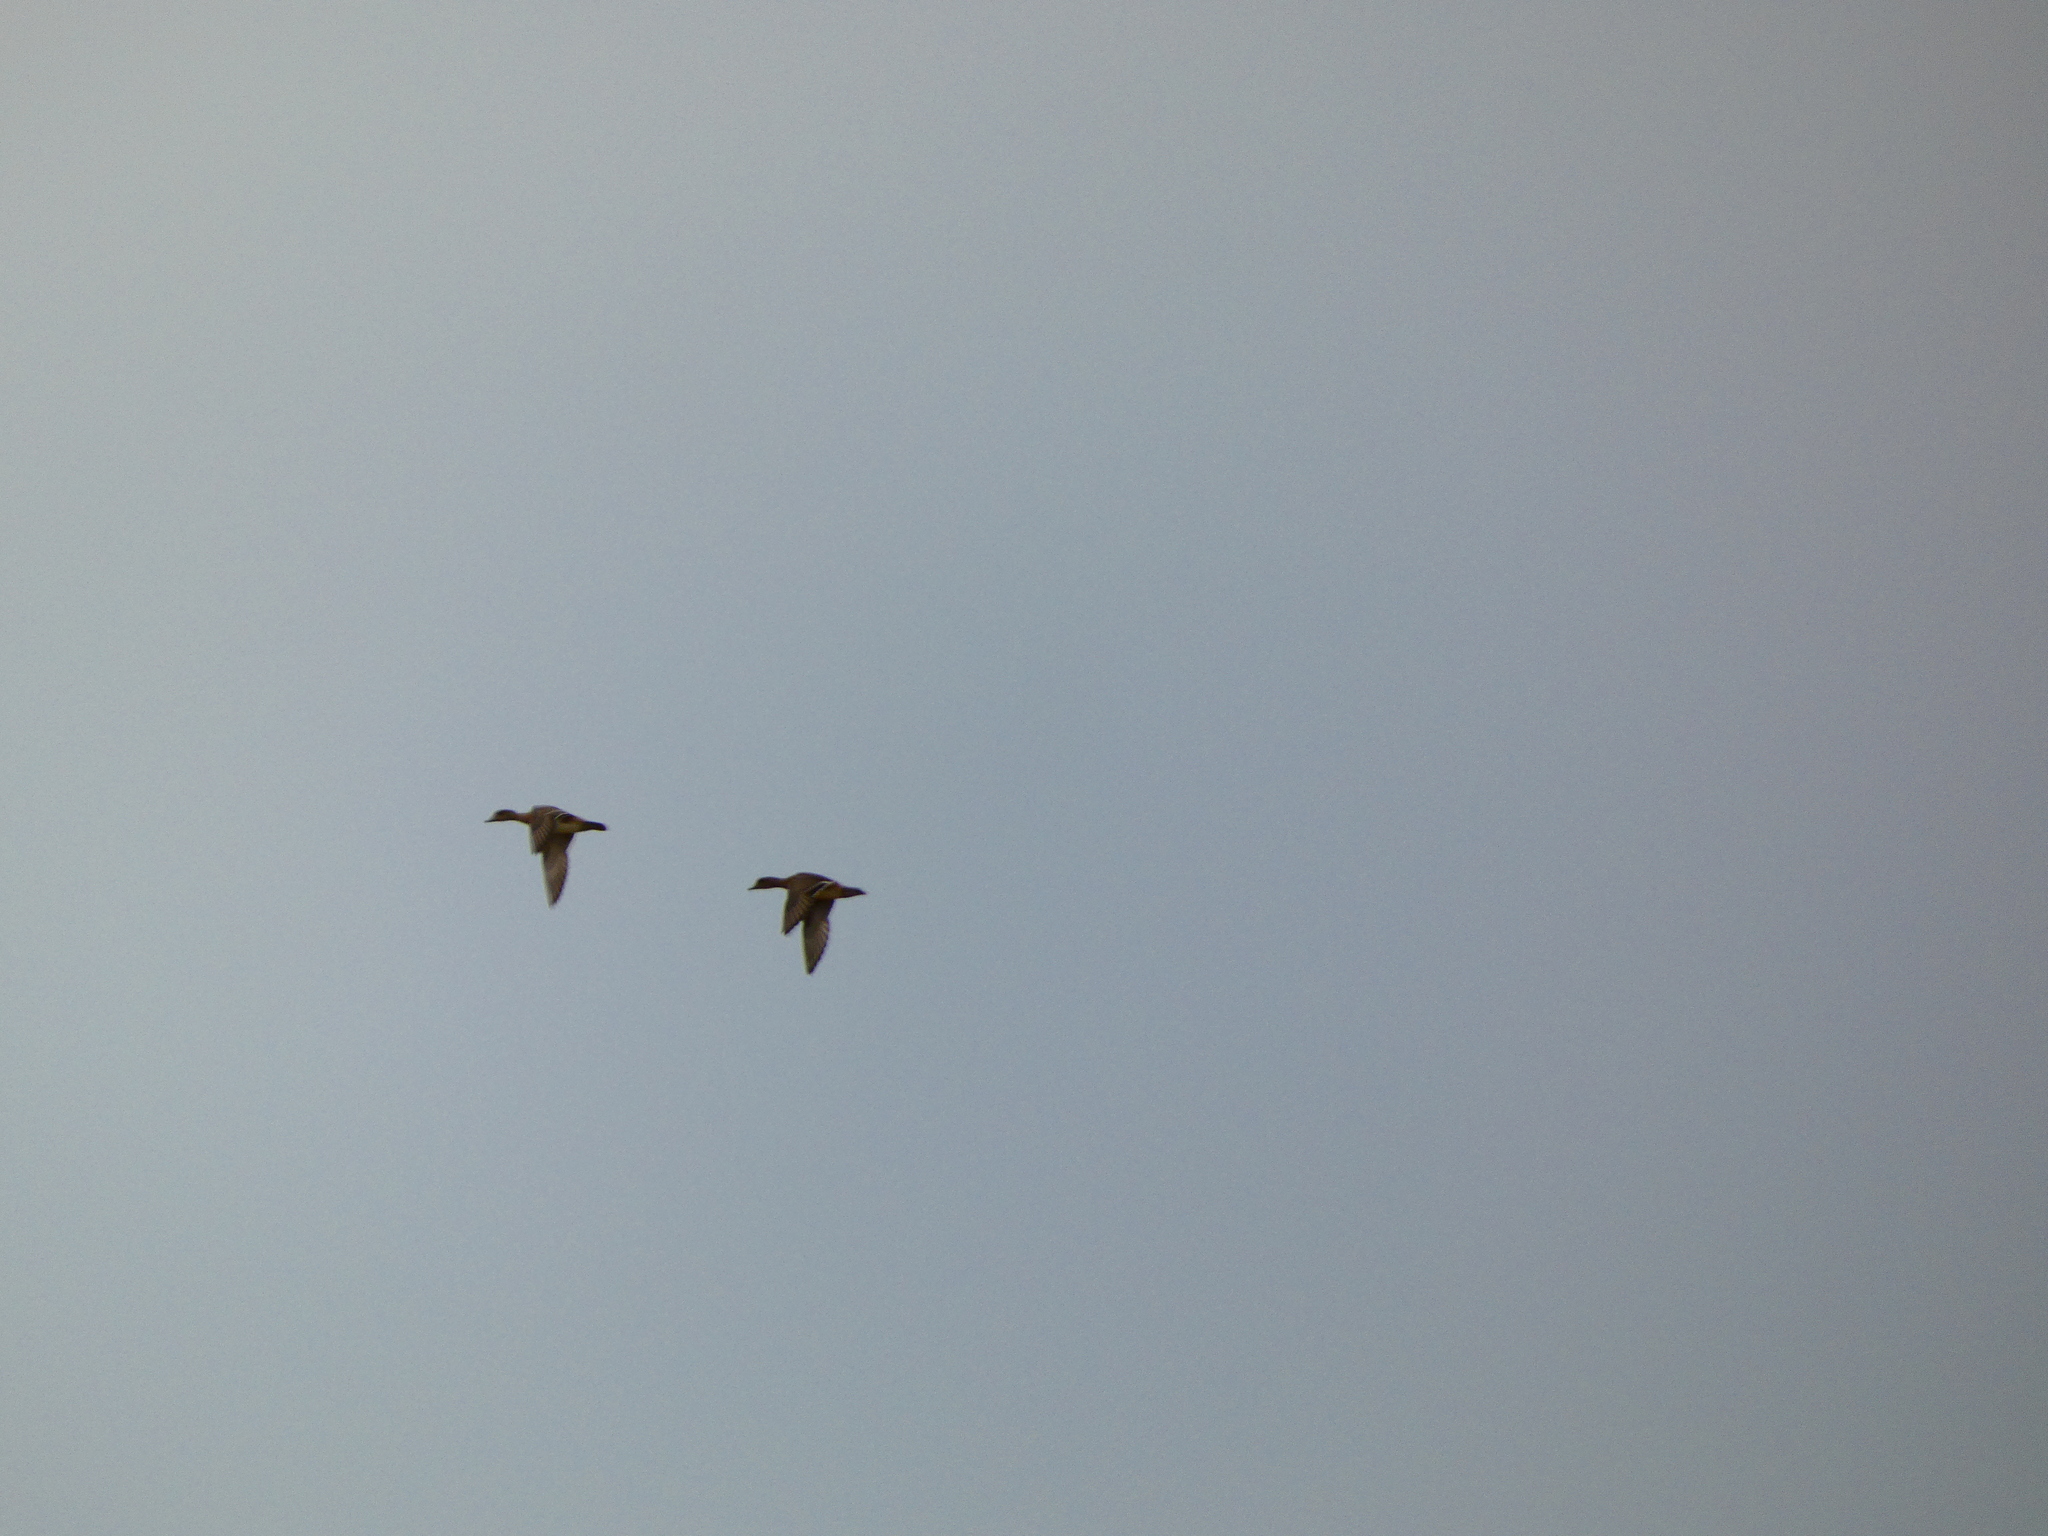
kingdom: Animalia
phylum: Chordata
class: Aves
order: Anseriformes
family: Anatidae
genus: Mareca
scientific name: Mareca penelope
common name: Eurasian wigeon
